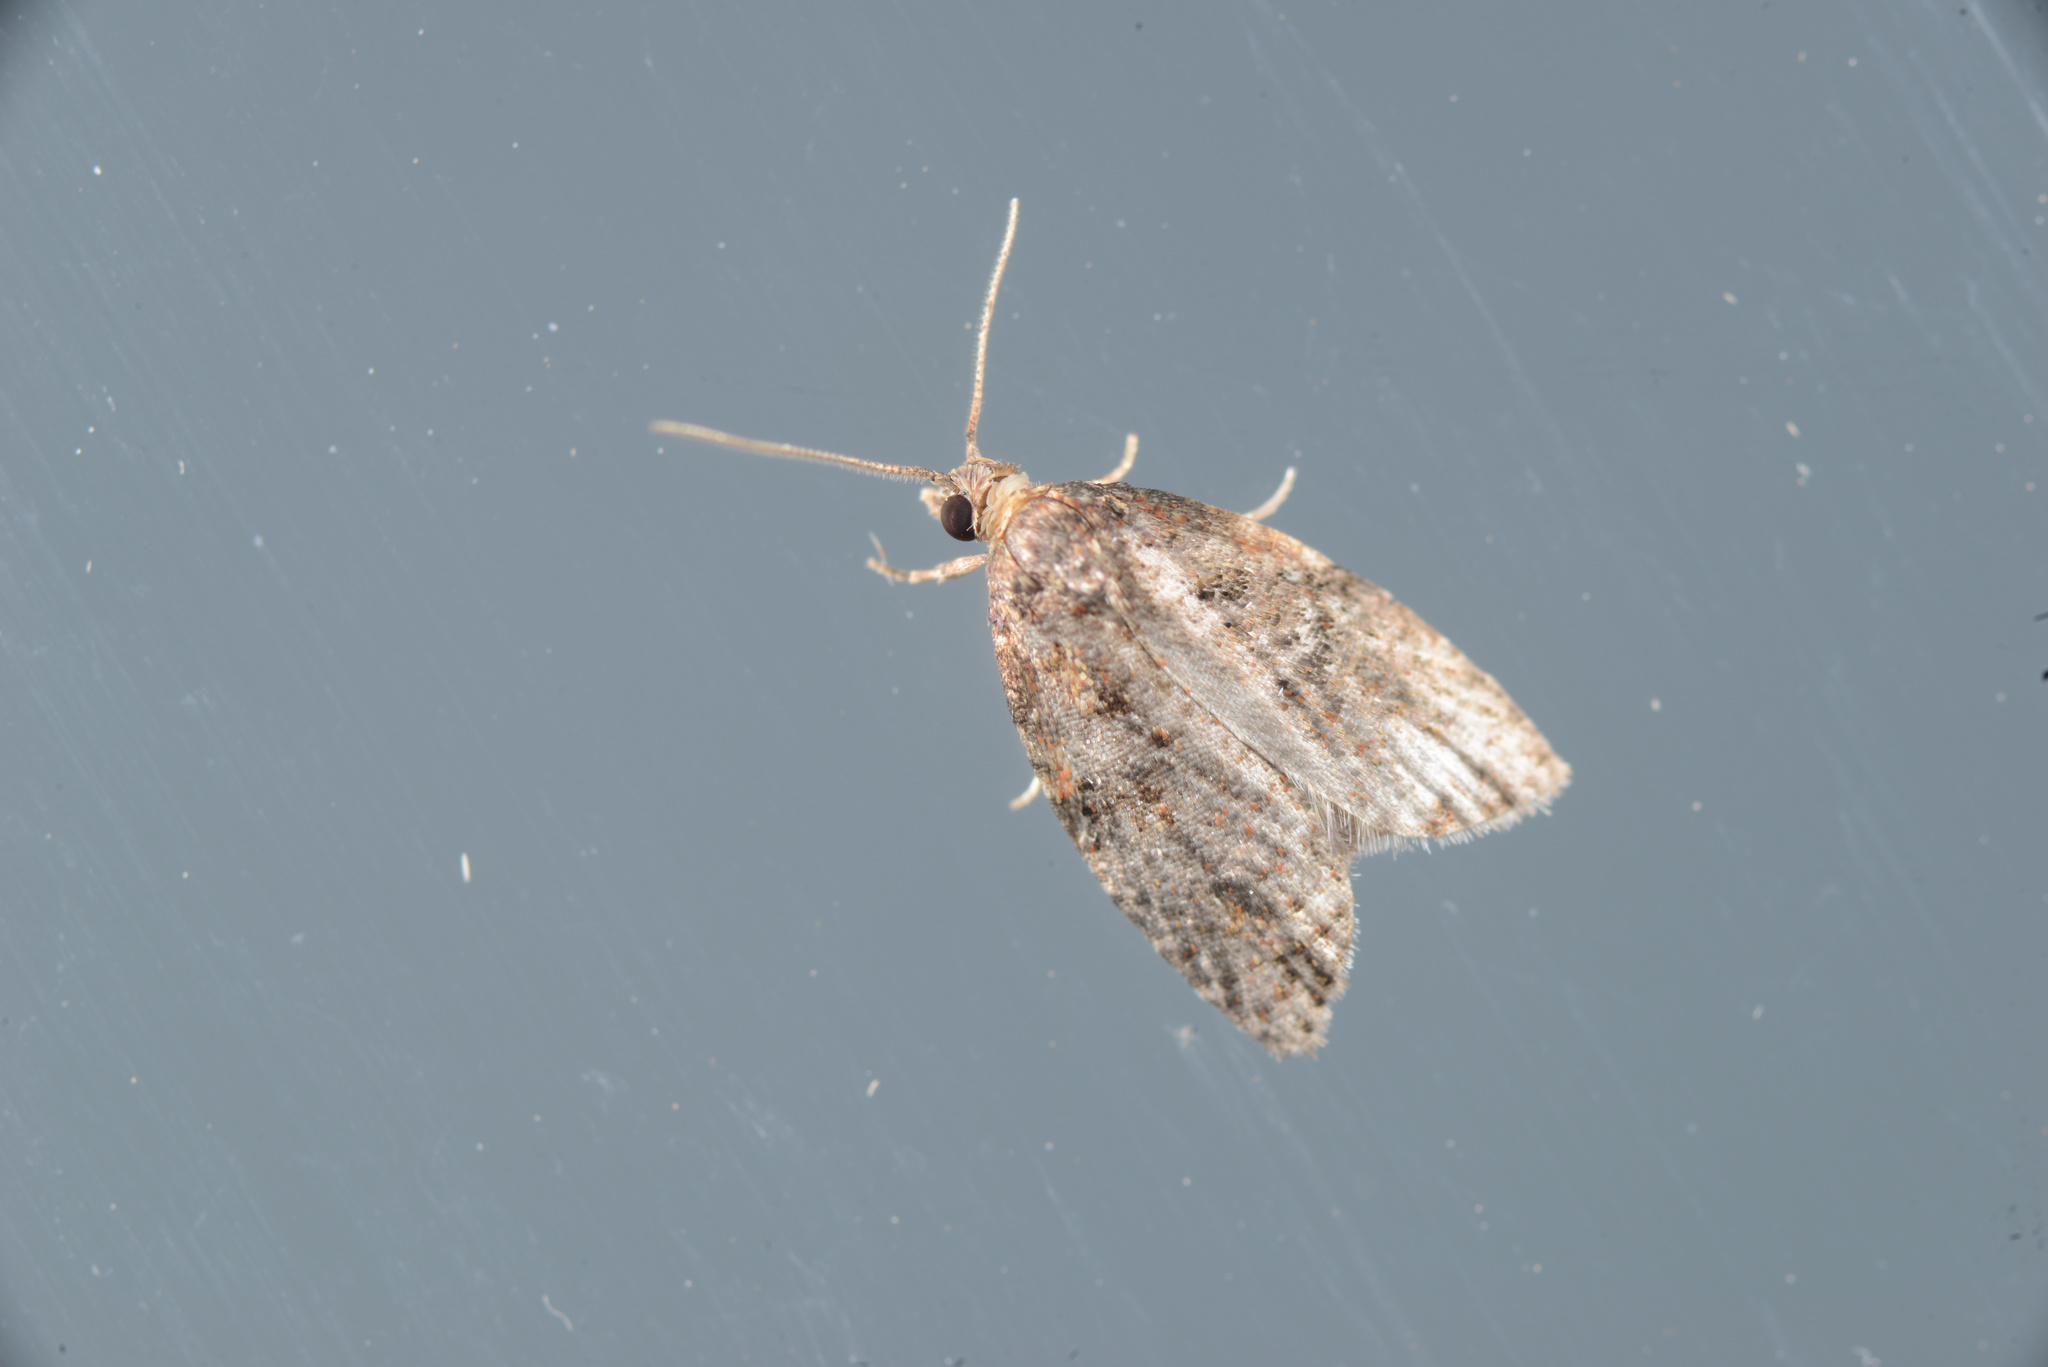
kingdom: Animalia
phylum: Arthropoda
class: Insecta
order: Lepidoptera
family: Tortricidae
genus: Capua
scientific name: Capua intractana
